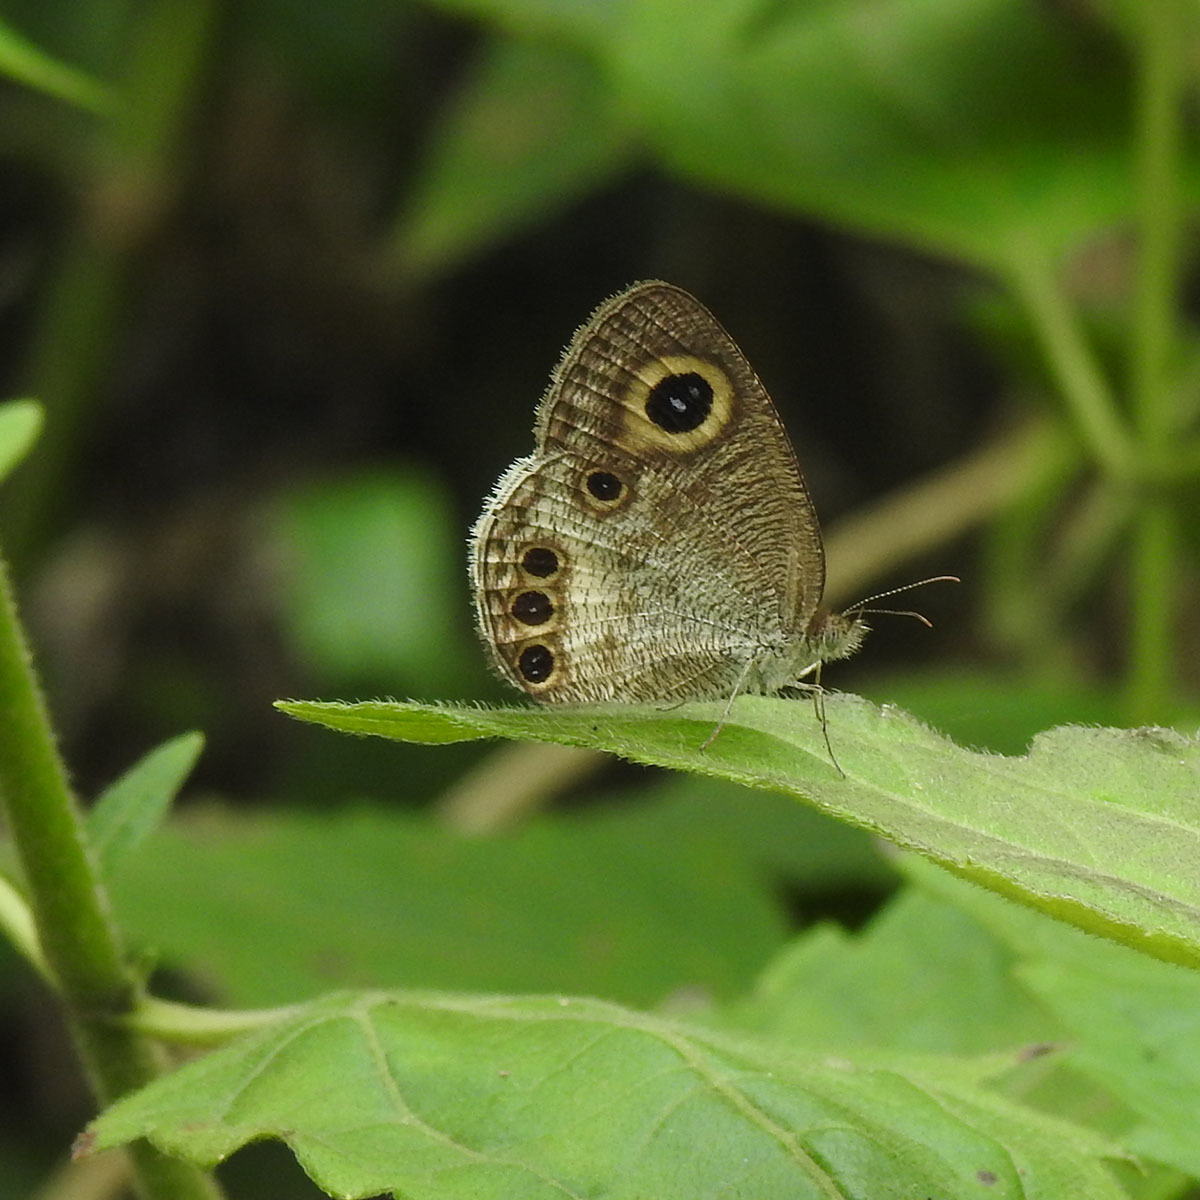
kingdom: Animalia
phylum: Arthropoda
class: Insecta
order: Lepidoptera
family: Nymphalidae
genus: Ypthima
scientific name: Ypthima huebneri
